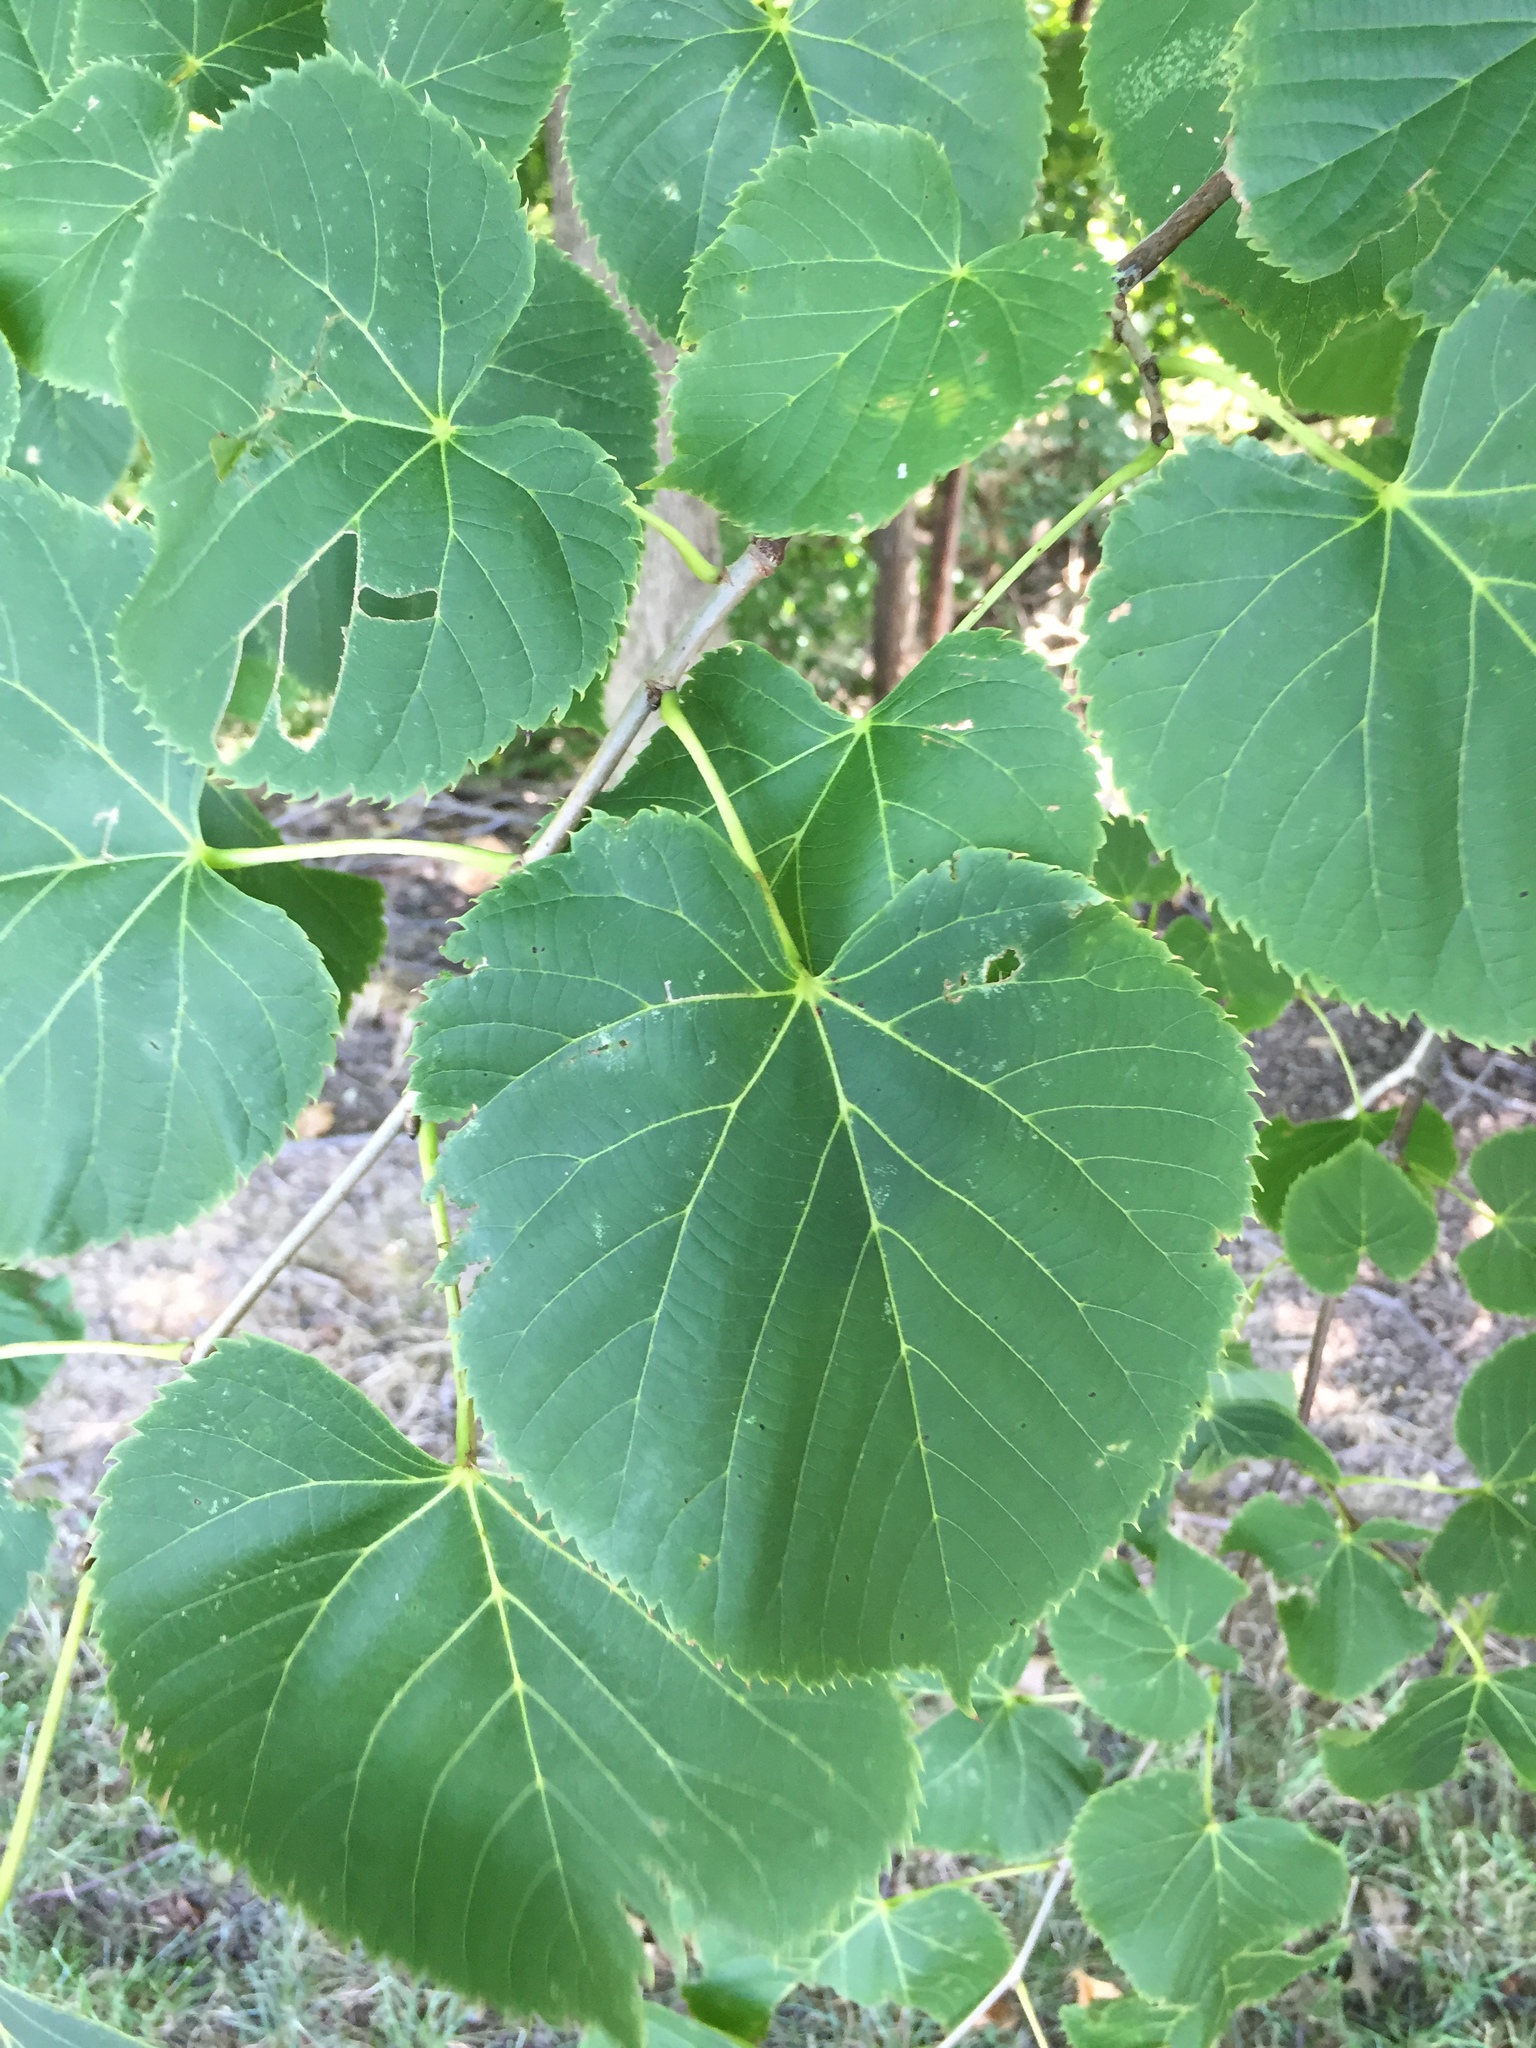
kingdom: Plantae
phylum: Tracheophyta
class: Magnoliopsida
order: Malvales
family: Malvaceae
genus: Tilia
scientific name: Tilia americana
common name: Basswood
